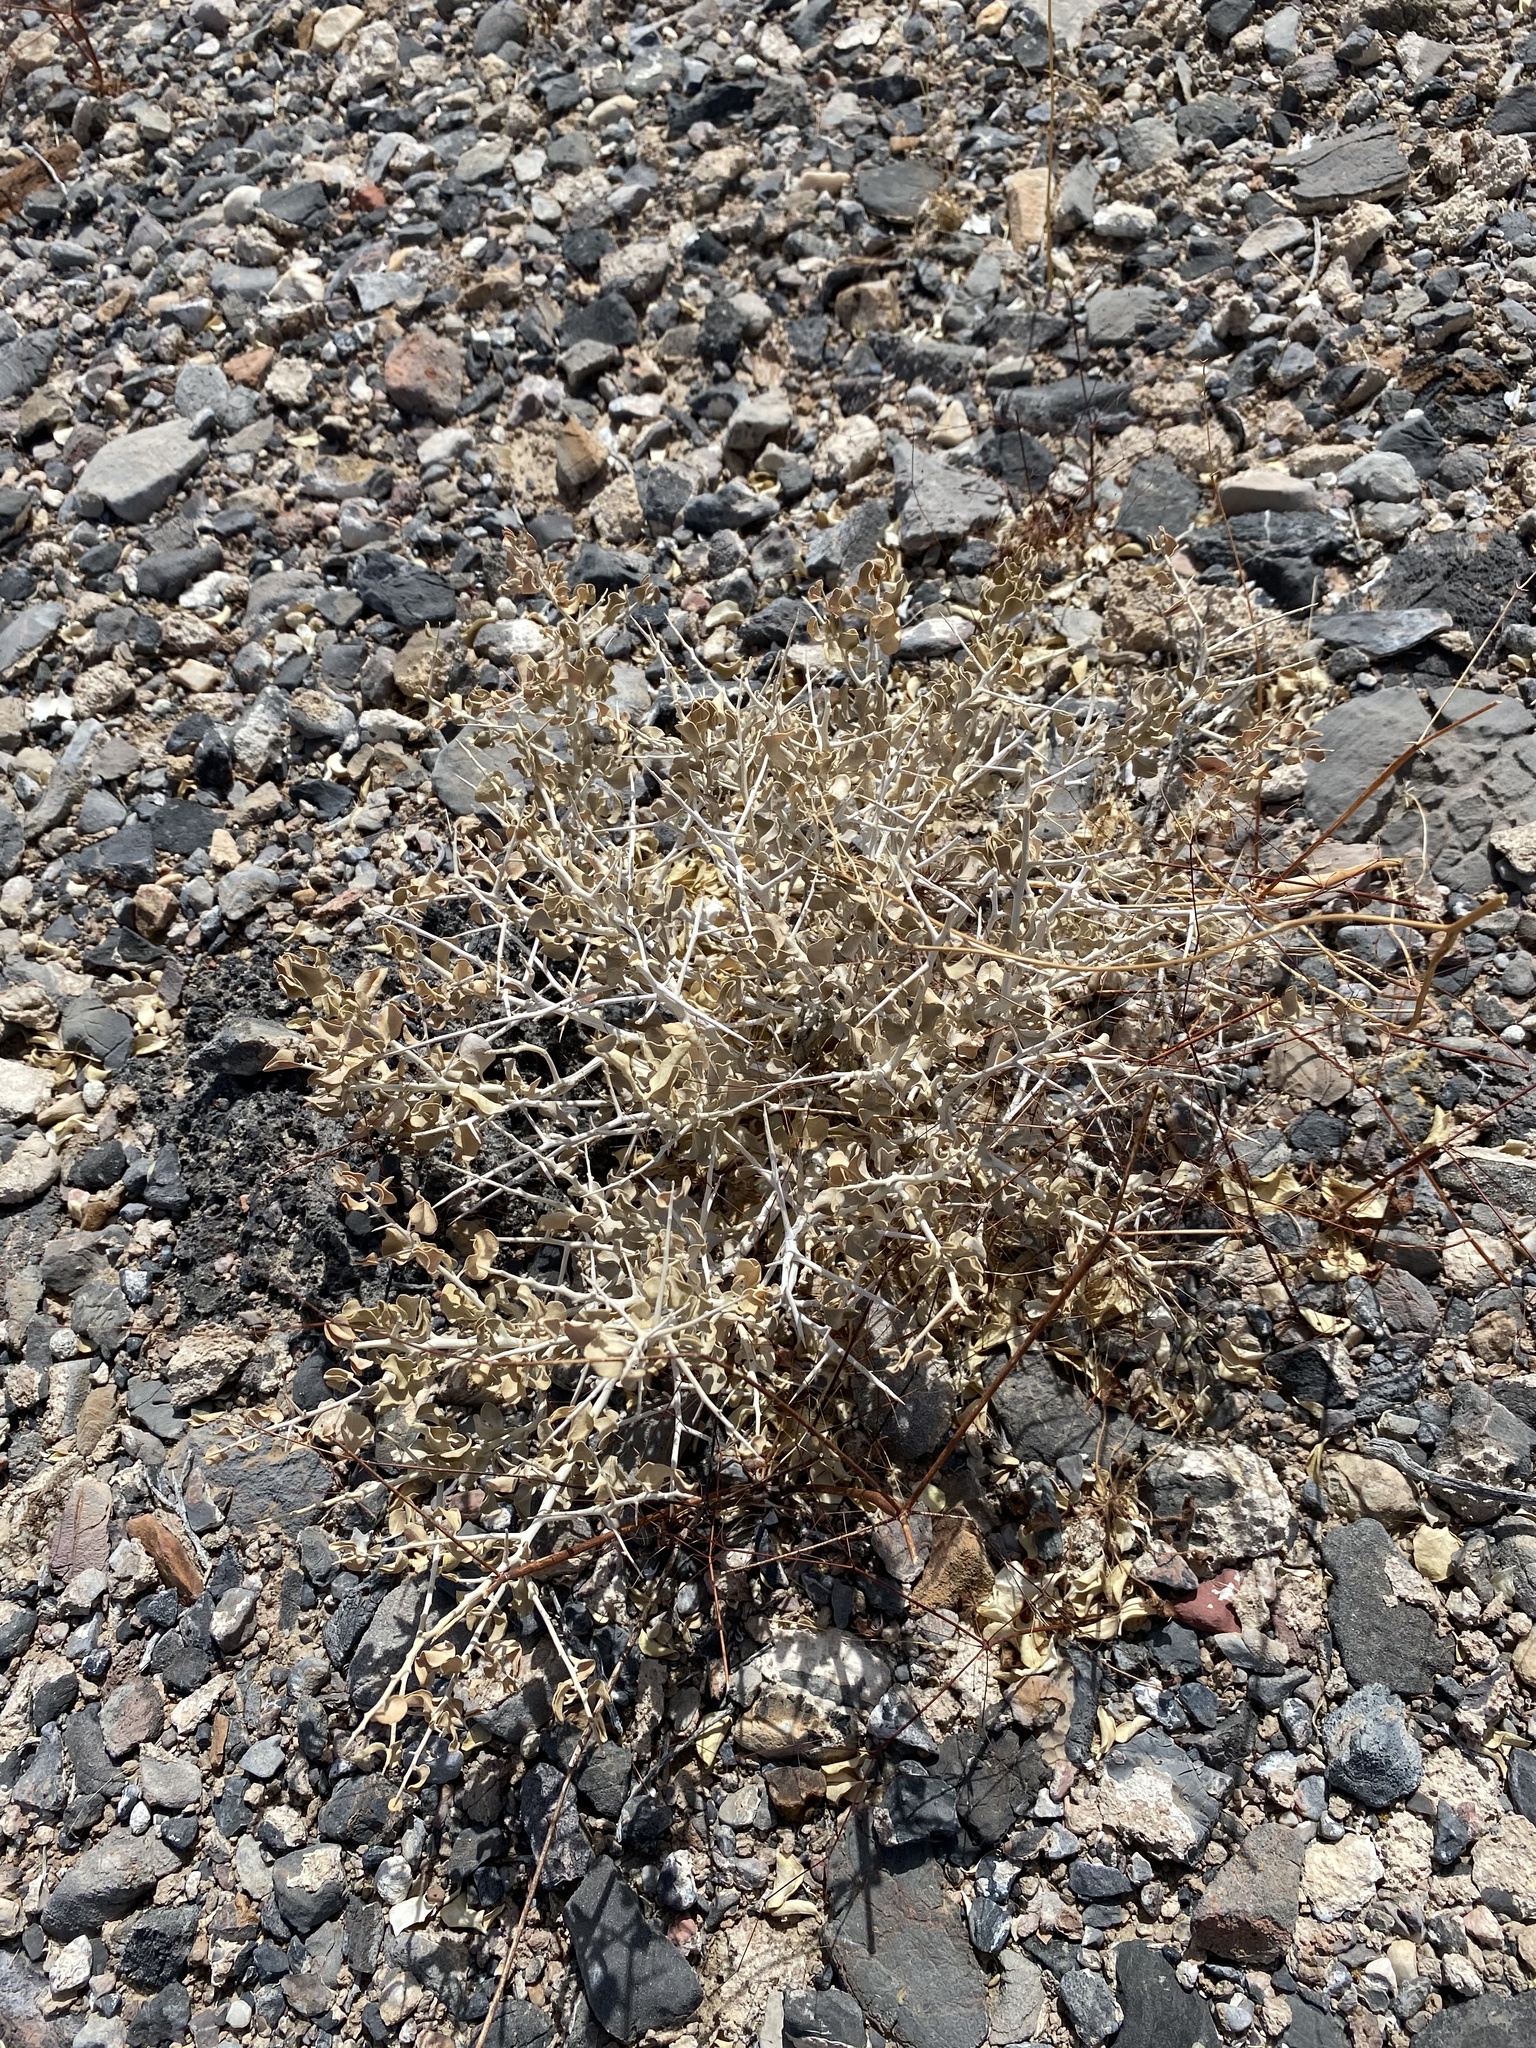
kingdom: Plantae
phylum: Tracheophyta
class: Magnoliopsida
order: Caryophyllales
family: Amaranthaceae
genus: Atriplex
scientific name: Atriplex confertifolia
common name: Shadscale
